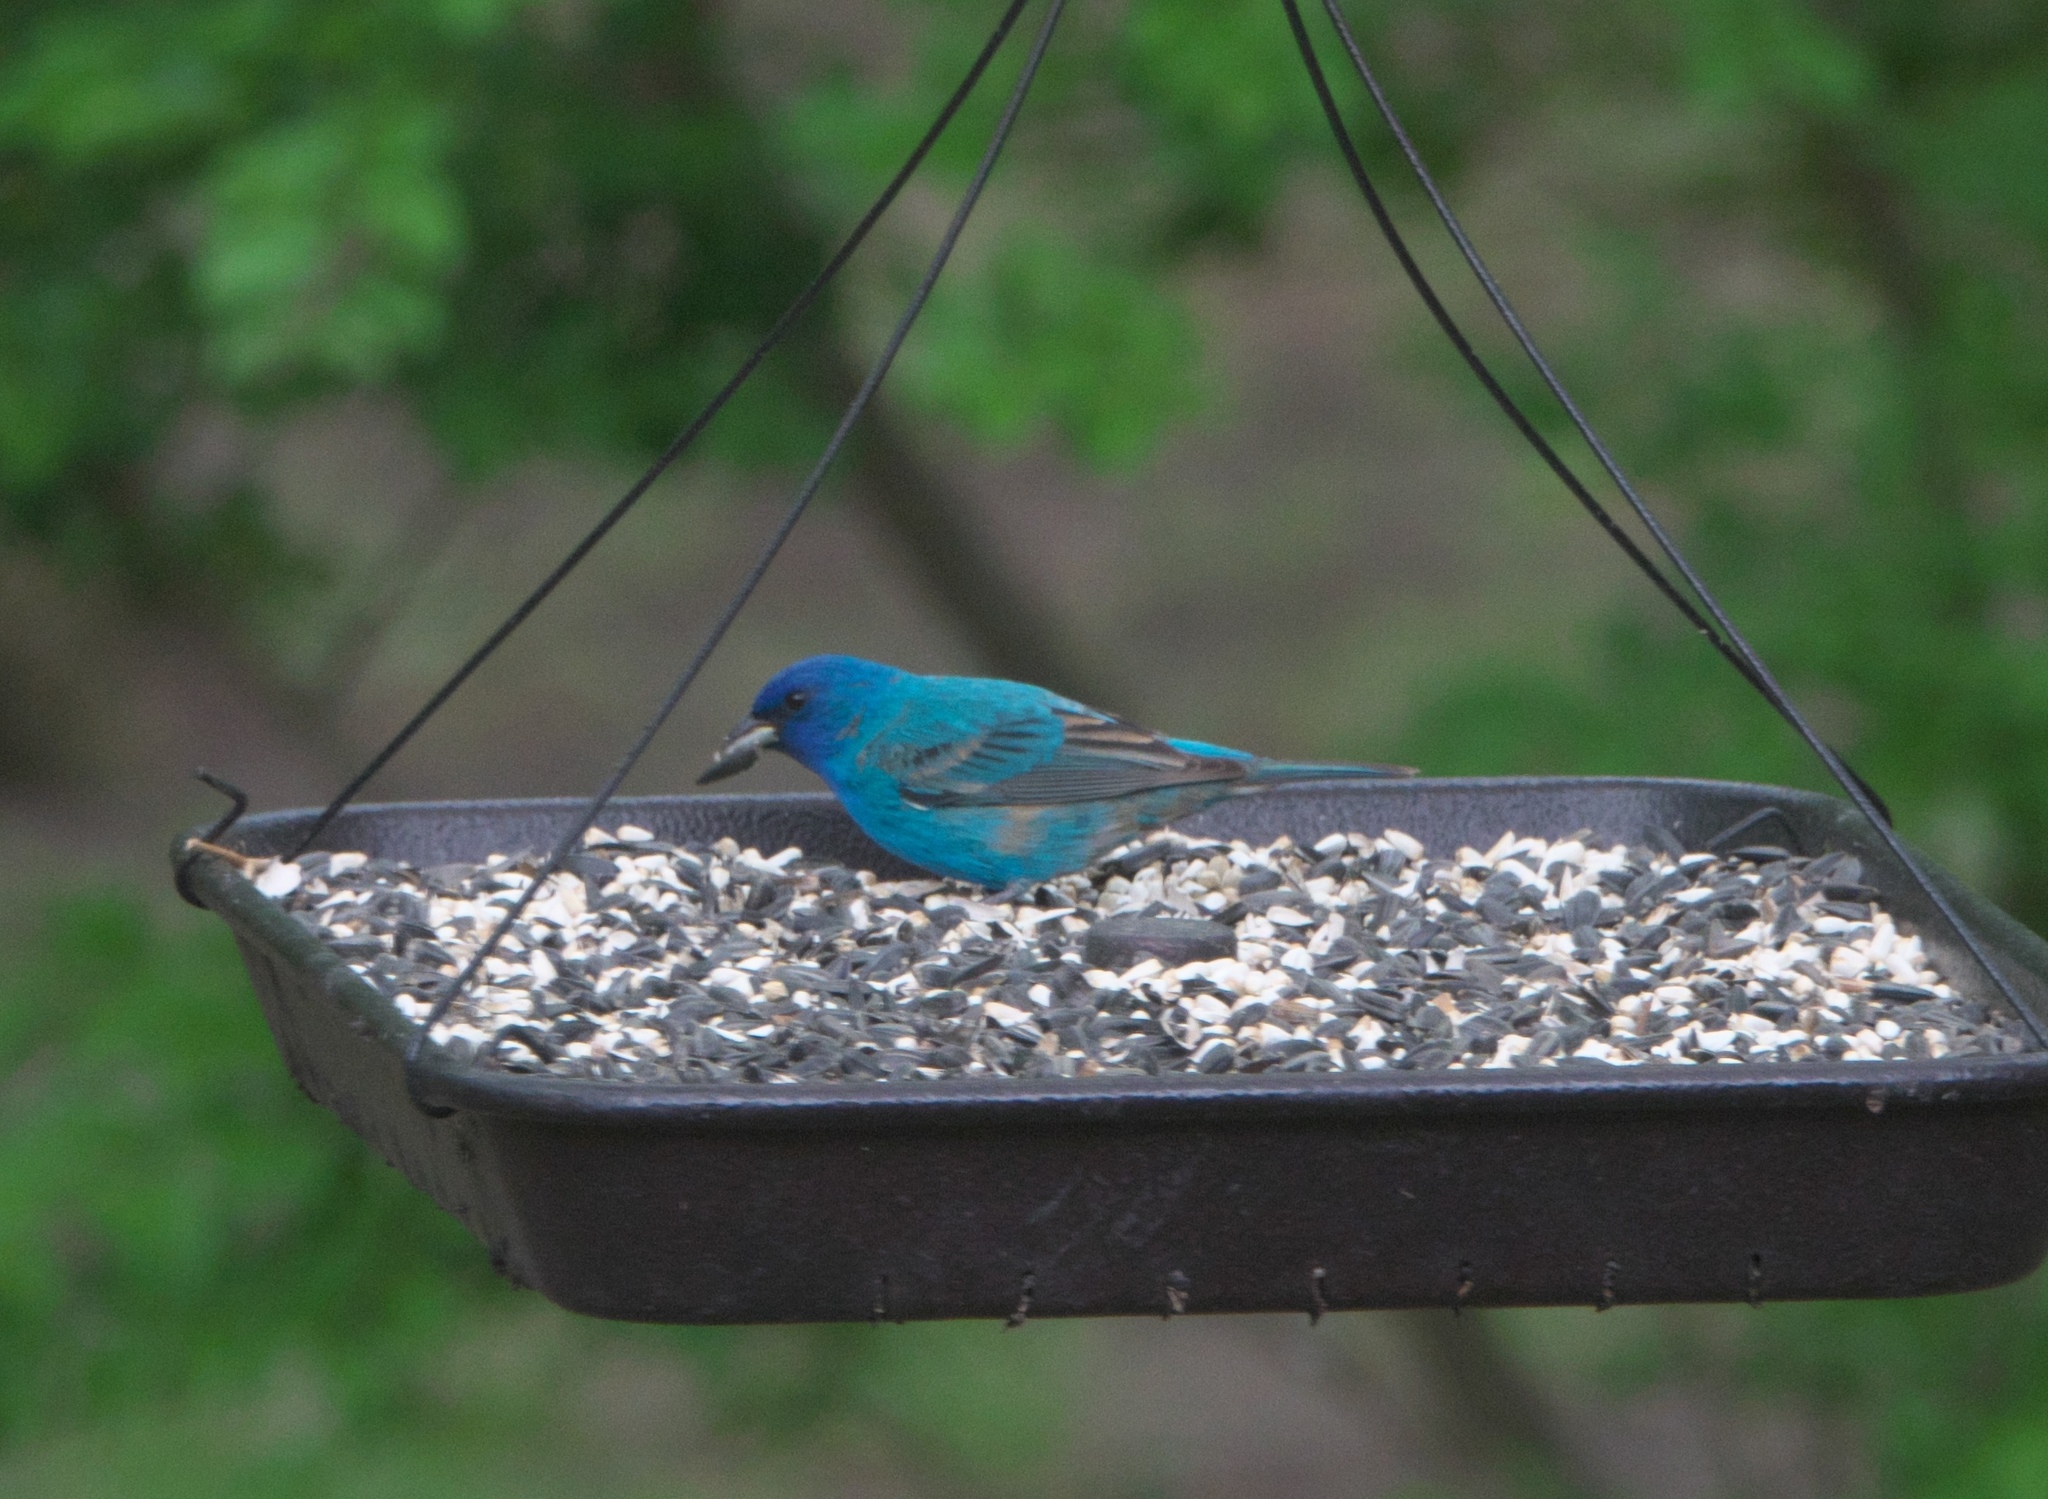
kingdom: Animalia
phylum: Chordata
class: Aves
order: Passeriformes
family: Cardinalidae
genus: Passerina
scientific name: Passerina cyanea
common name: Indigo bunting
